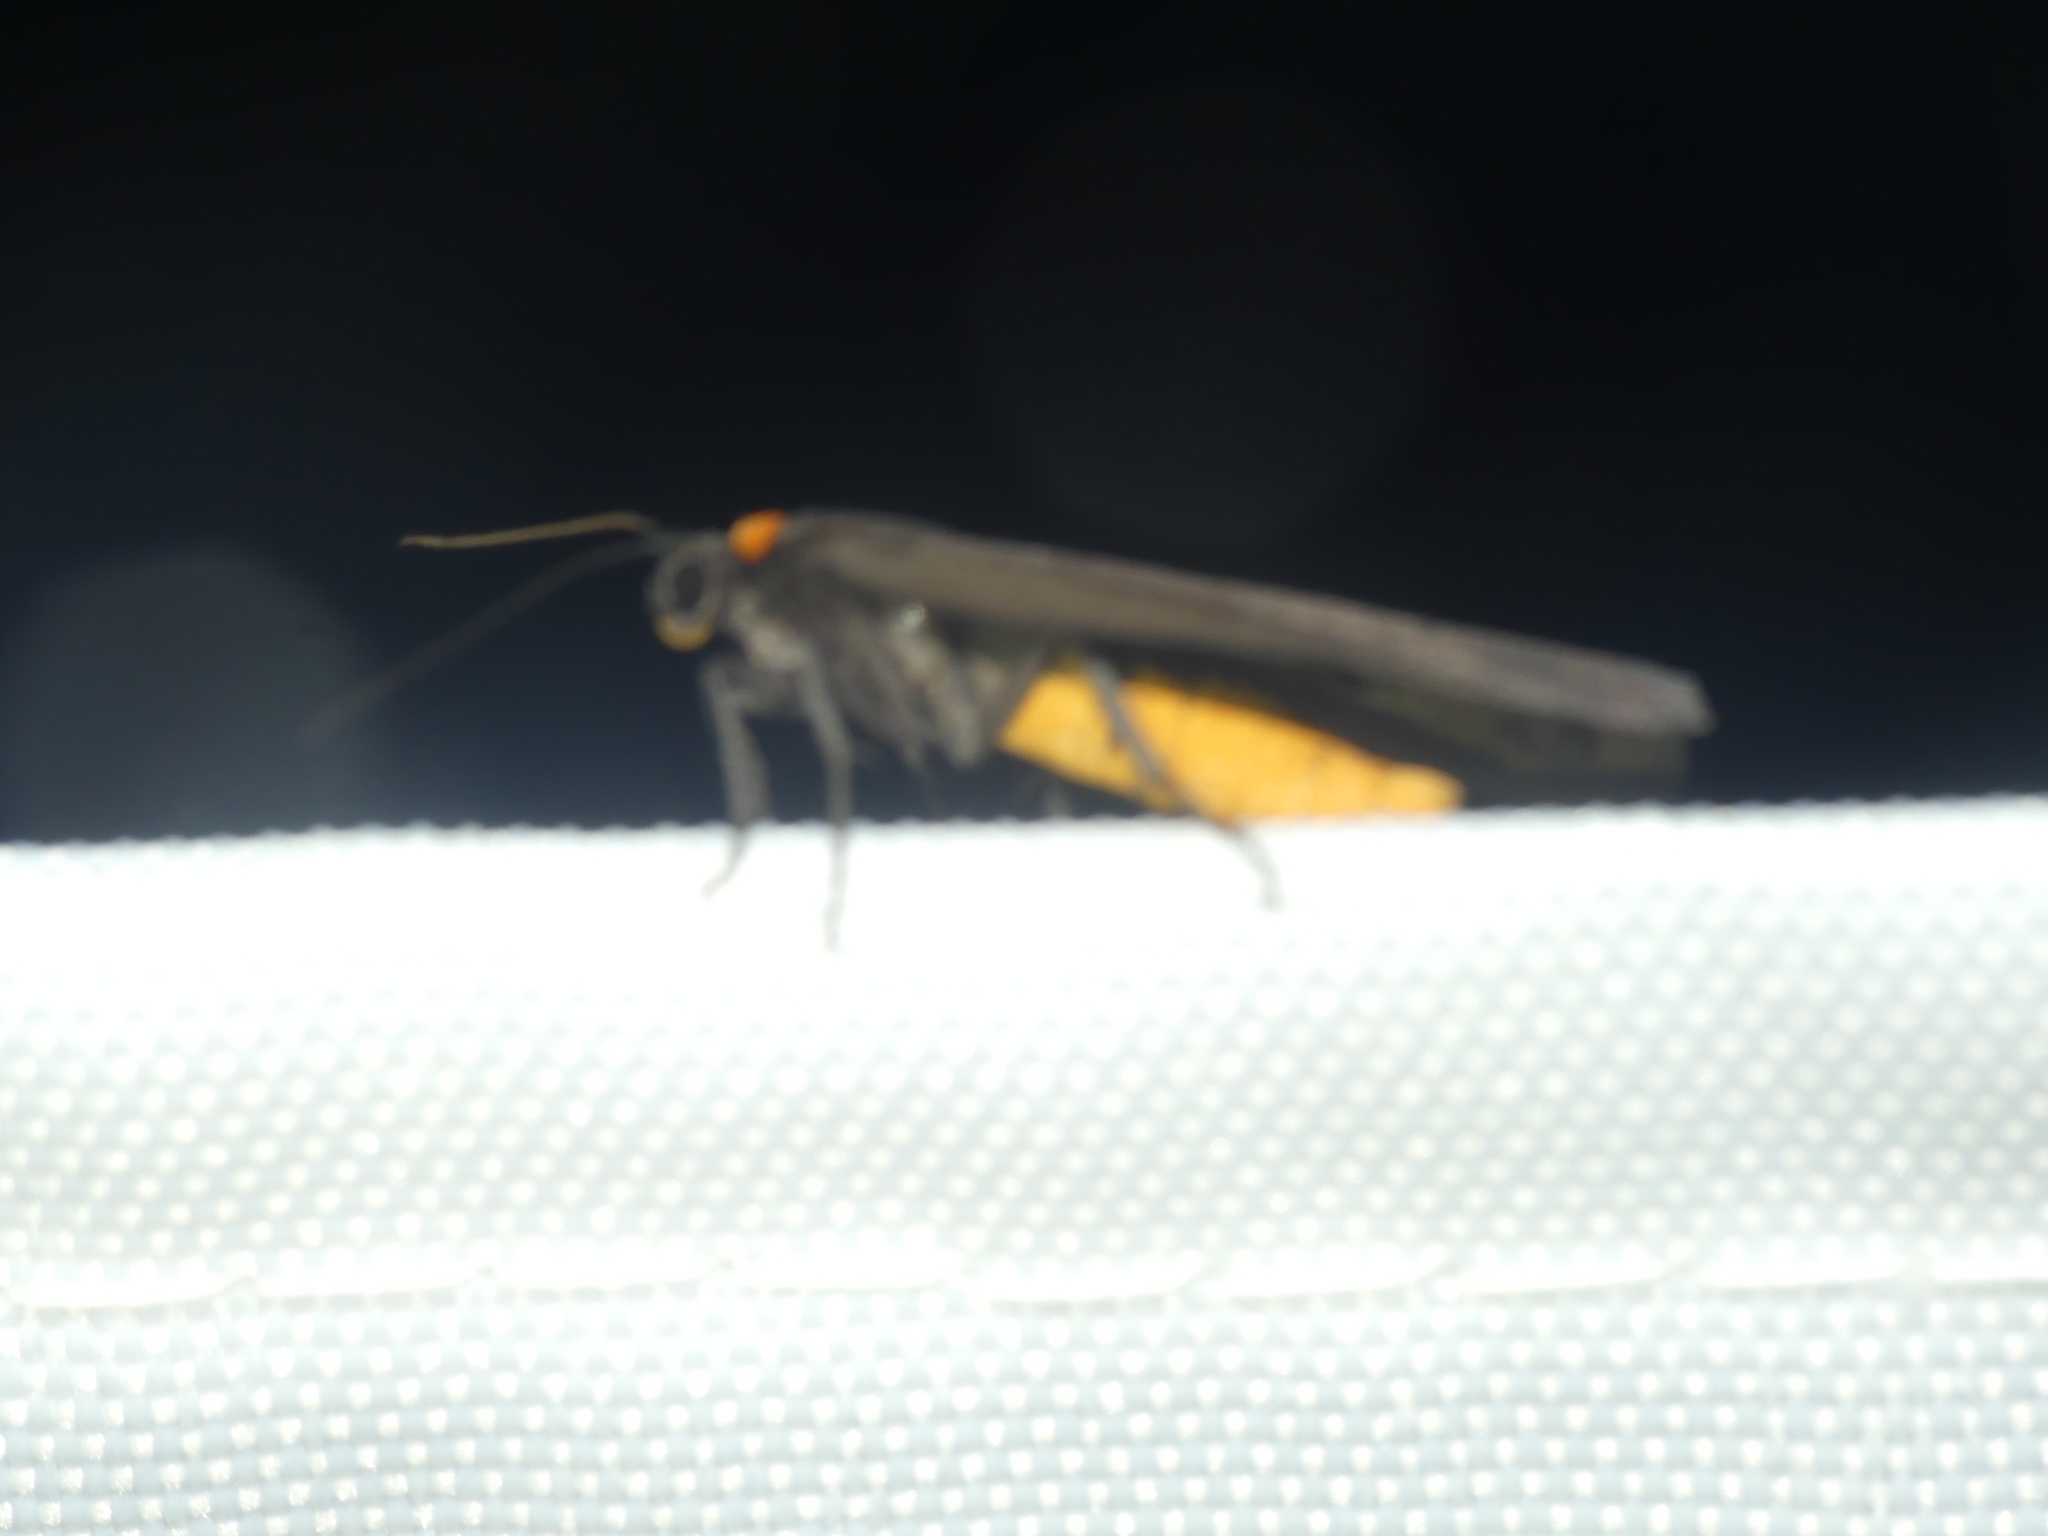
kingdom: Animalia
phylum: Arthropoda
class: Insecta
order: Lepidoptera
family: Erebidae
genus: Atolmis
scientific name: Atolmis rubricollis
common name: Red-necked footman
